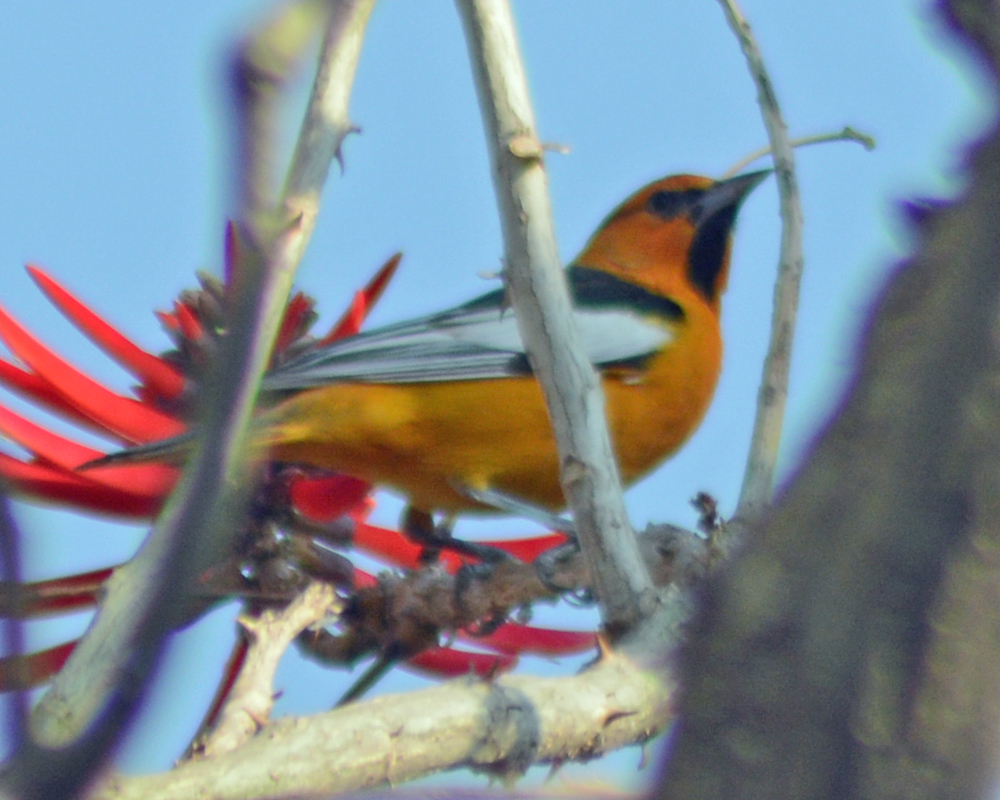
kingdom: Animalia
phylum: Chordata
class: Aves
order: Passeriformes
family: Icteridae
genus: Icterus
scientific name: Icterus bullockii
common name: Bullock's oriole
